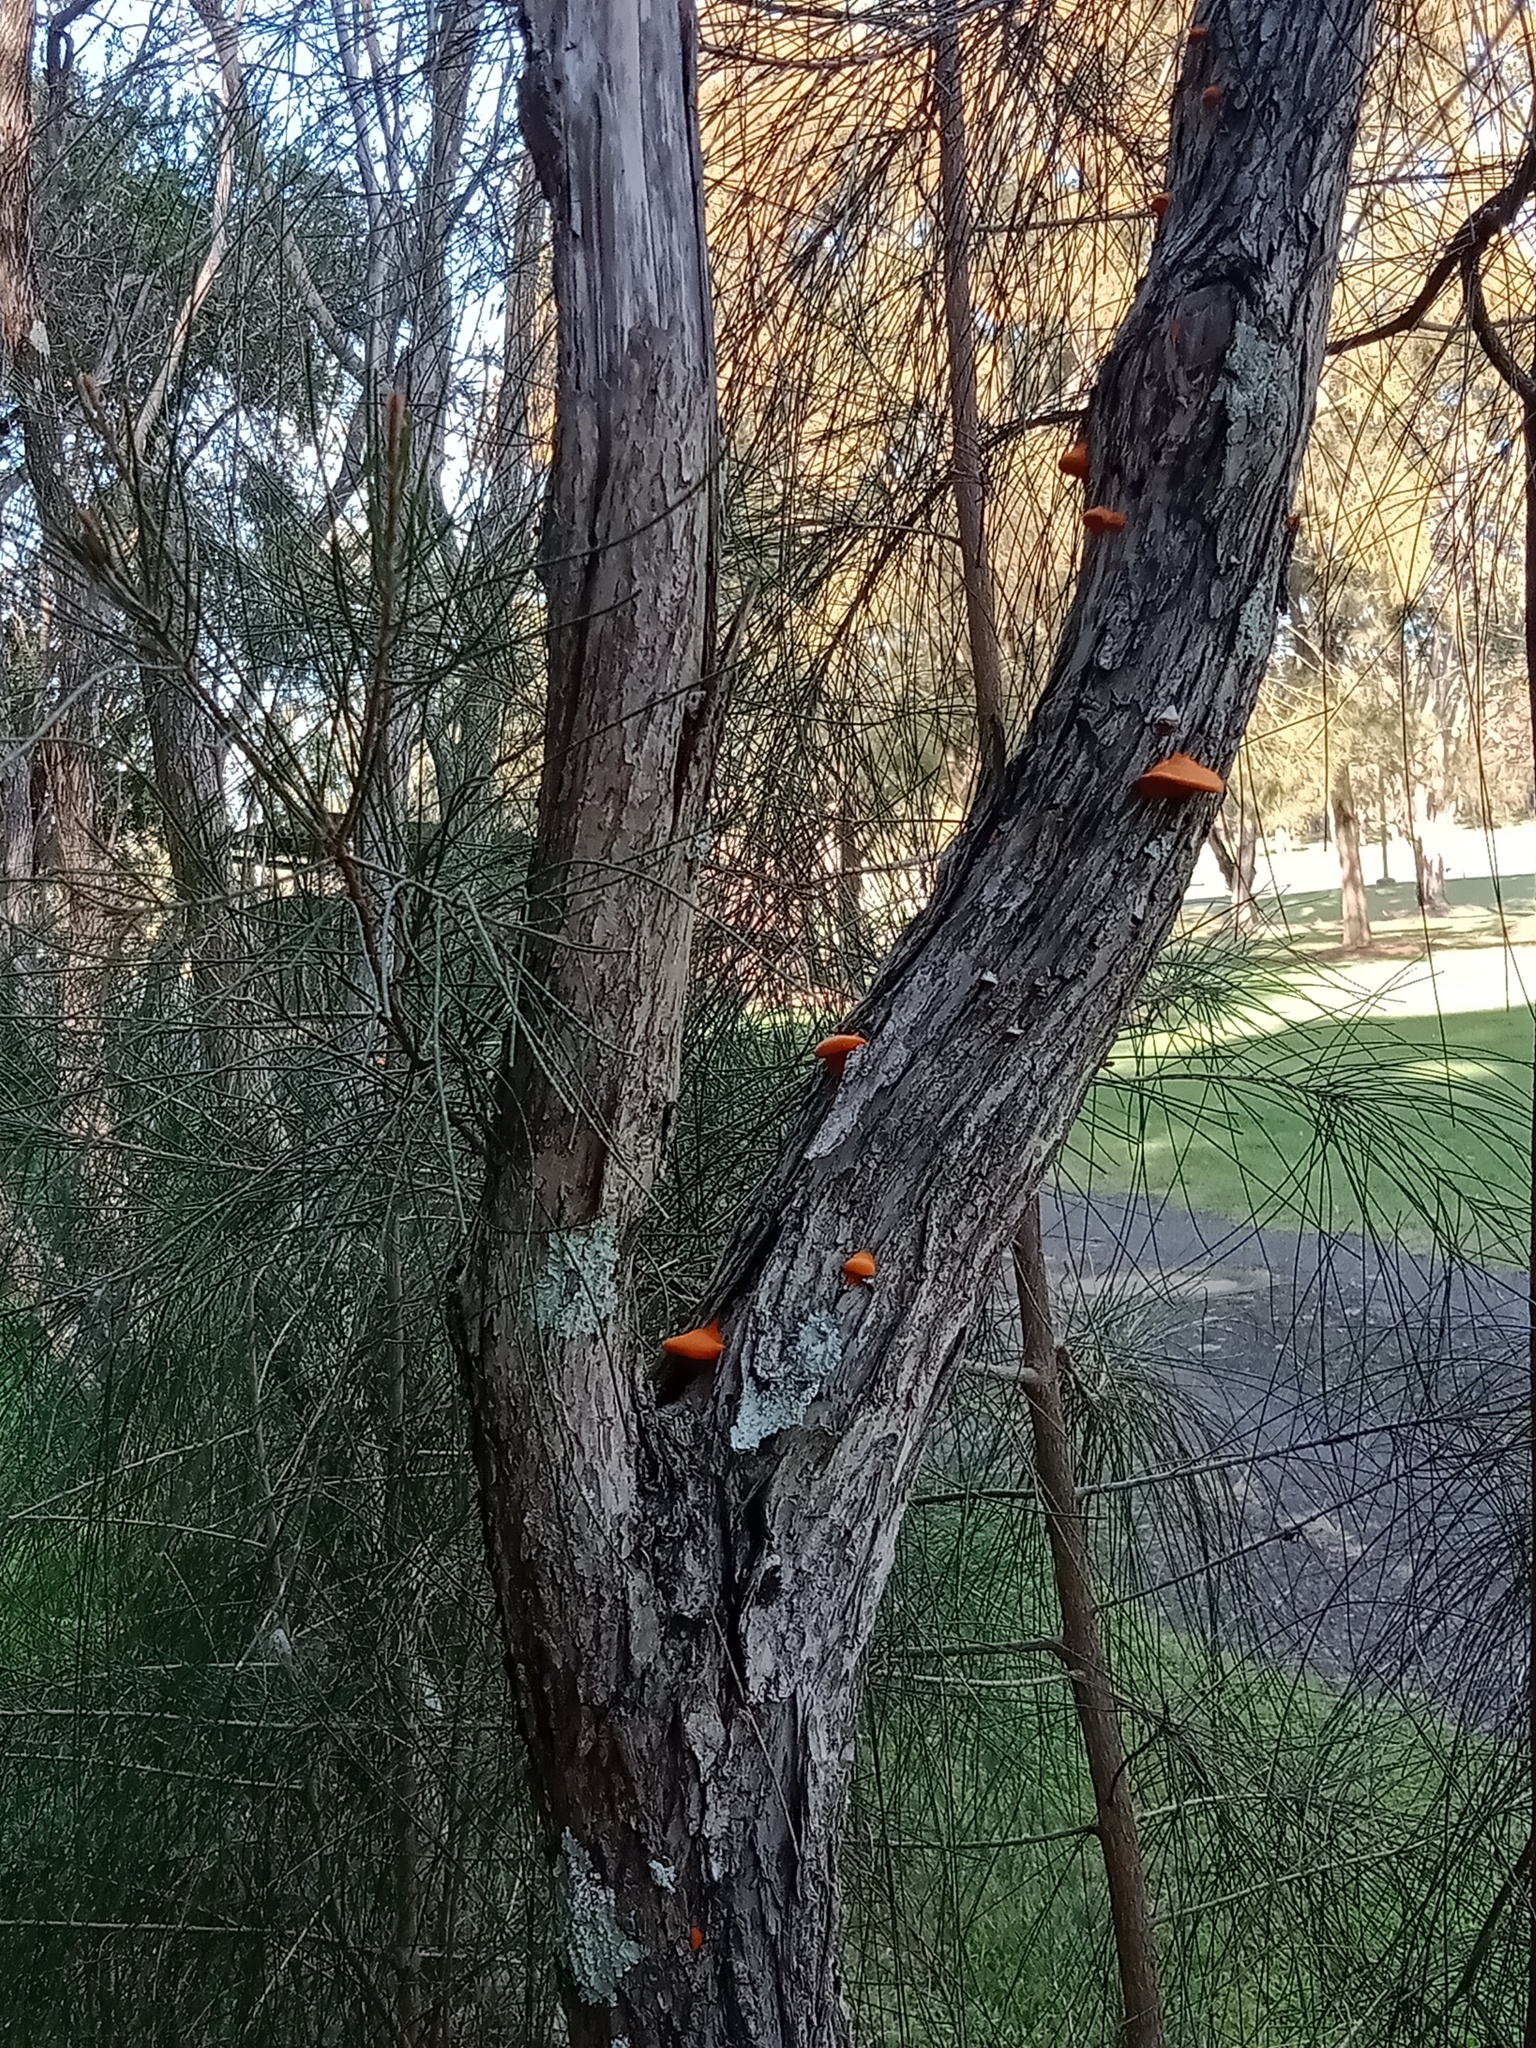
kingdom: Fungi
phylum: Basidiomycota
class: Agaricomycetes
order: Polyporales
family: Polyporaceae
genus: Trametes
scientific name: Trametes coccinea
